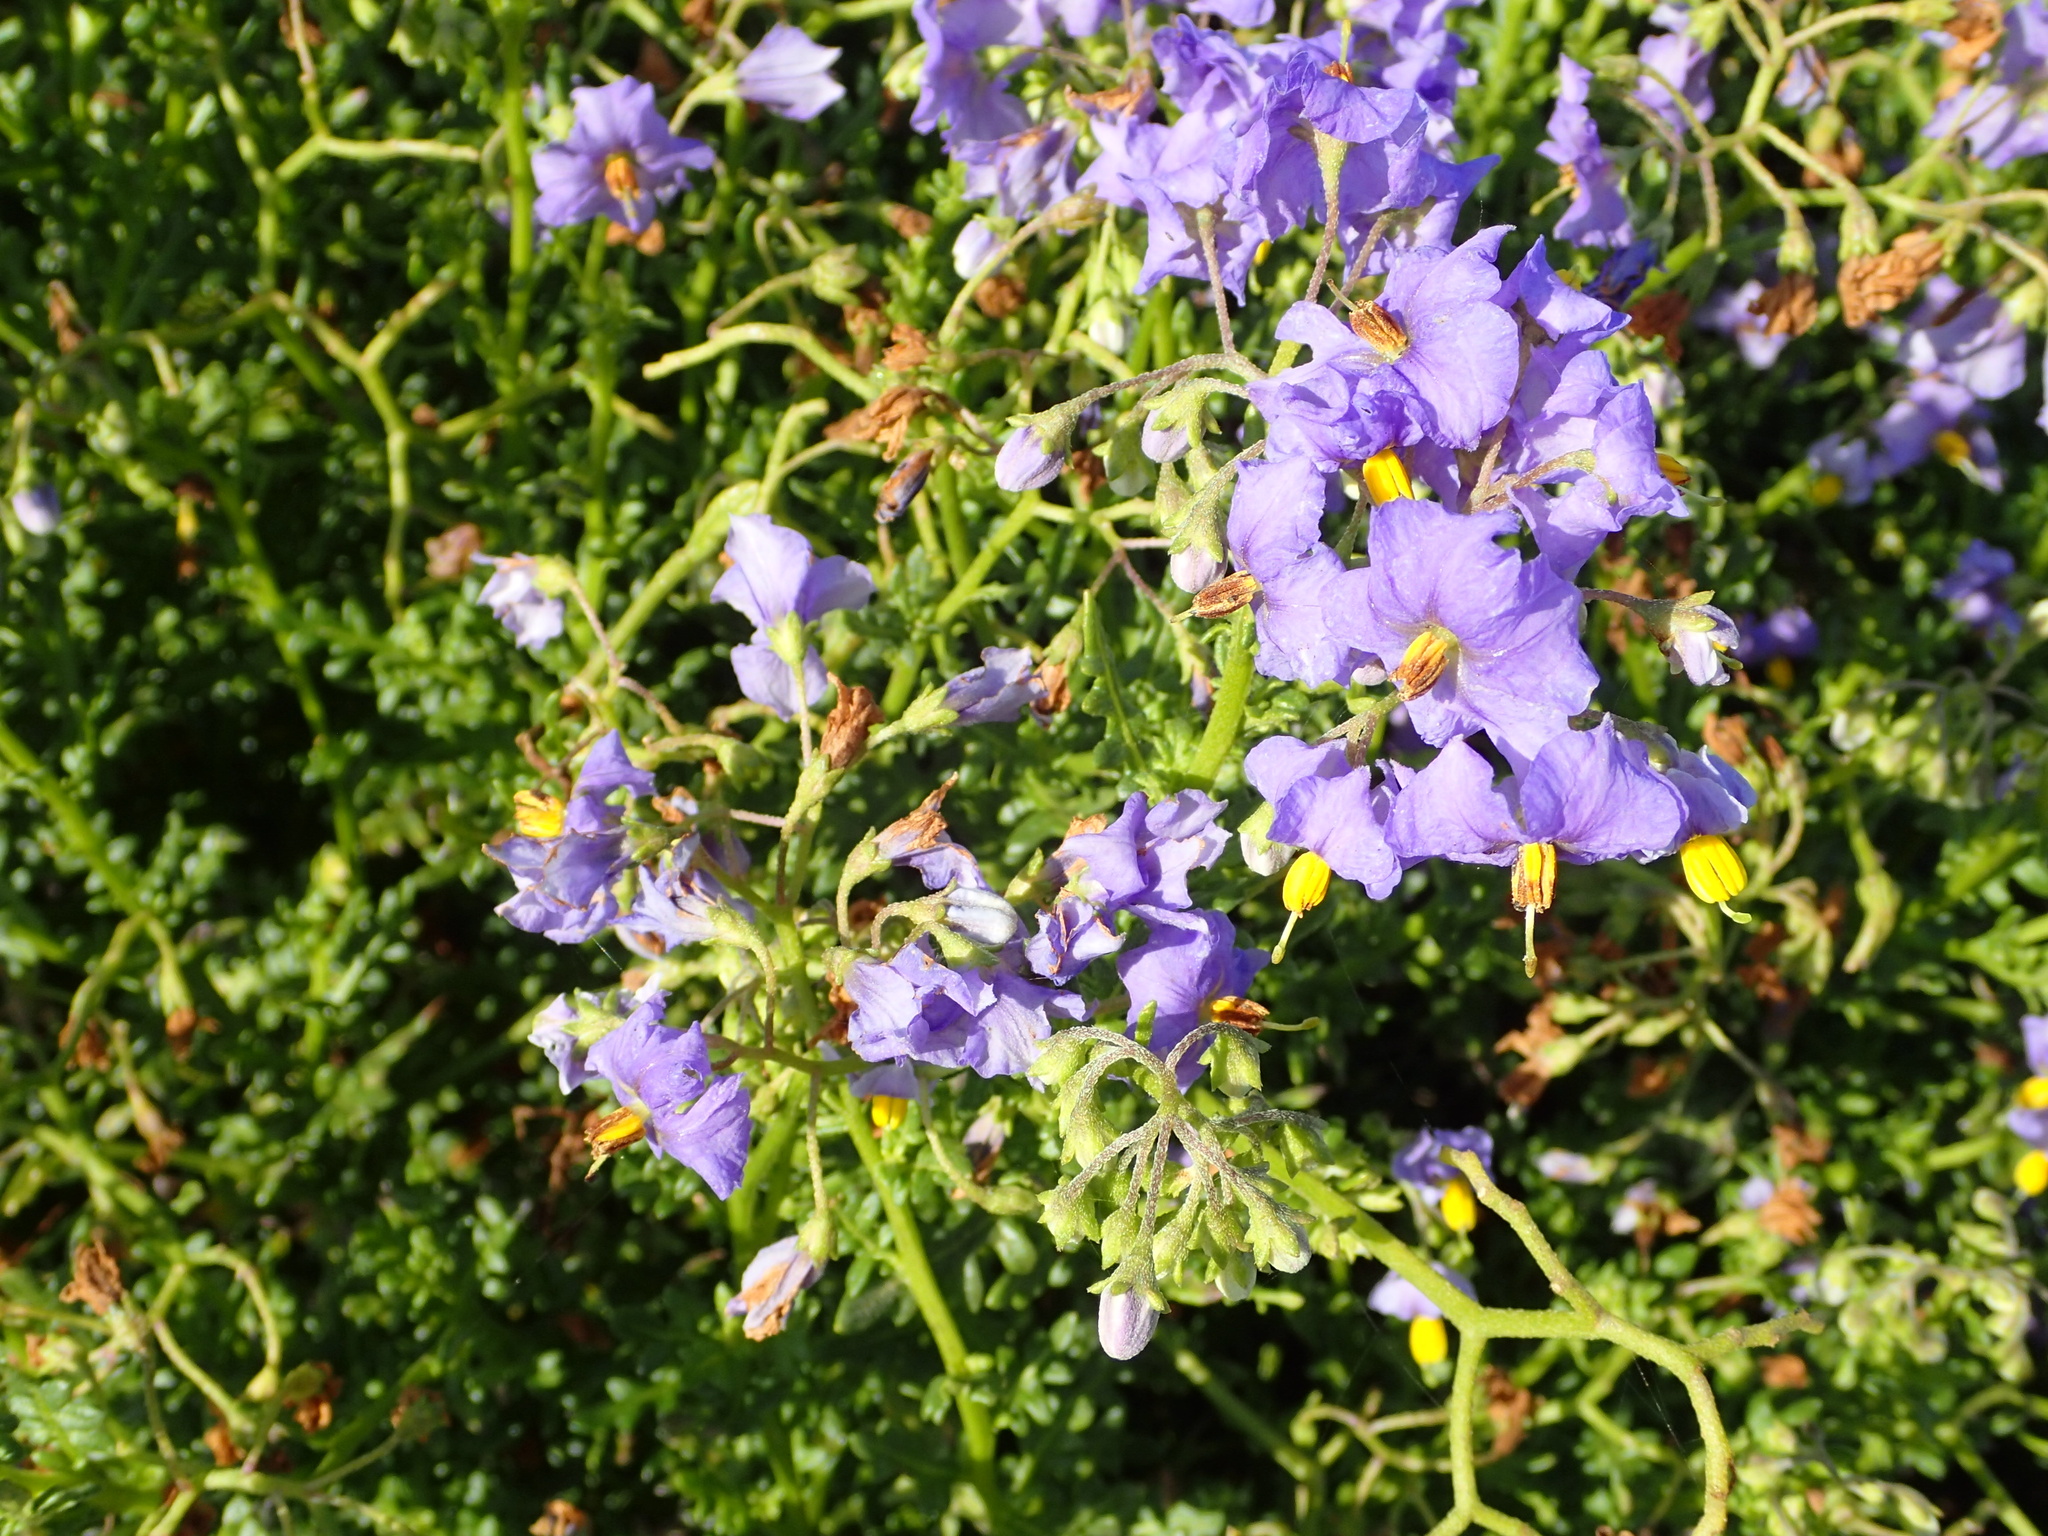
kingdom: Plantae
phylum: Tracheophyta
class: Magnoliopsida
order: Solanales
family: Solanaceae
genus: Solanum
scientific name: Solanum pinnatum
